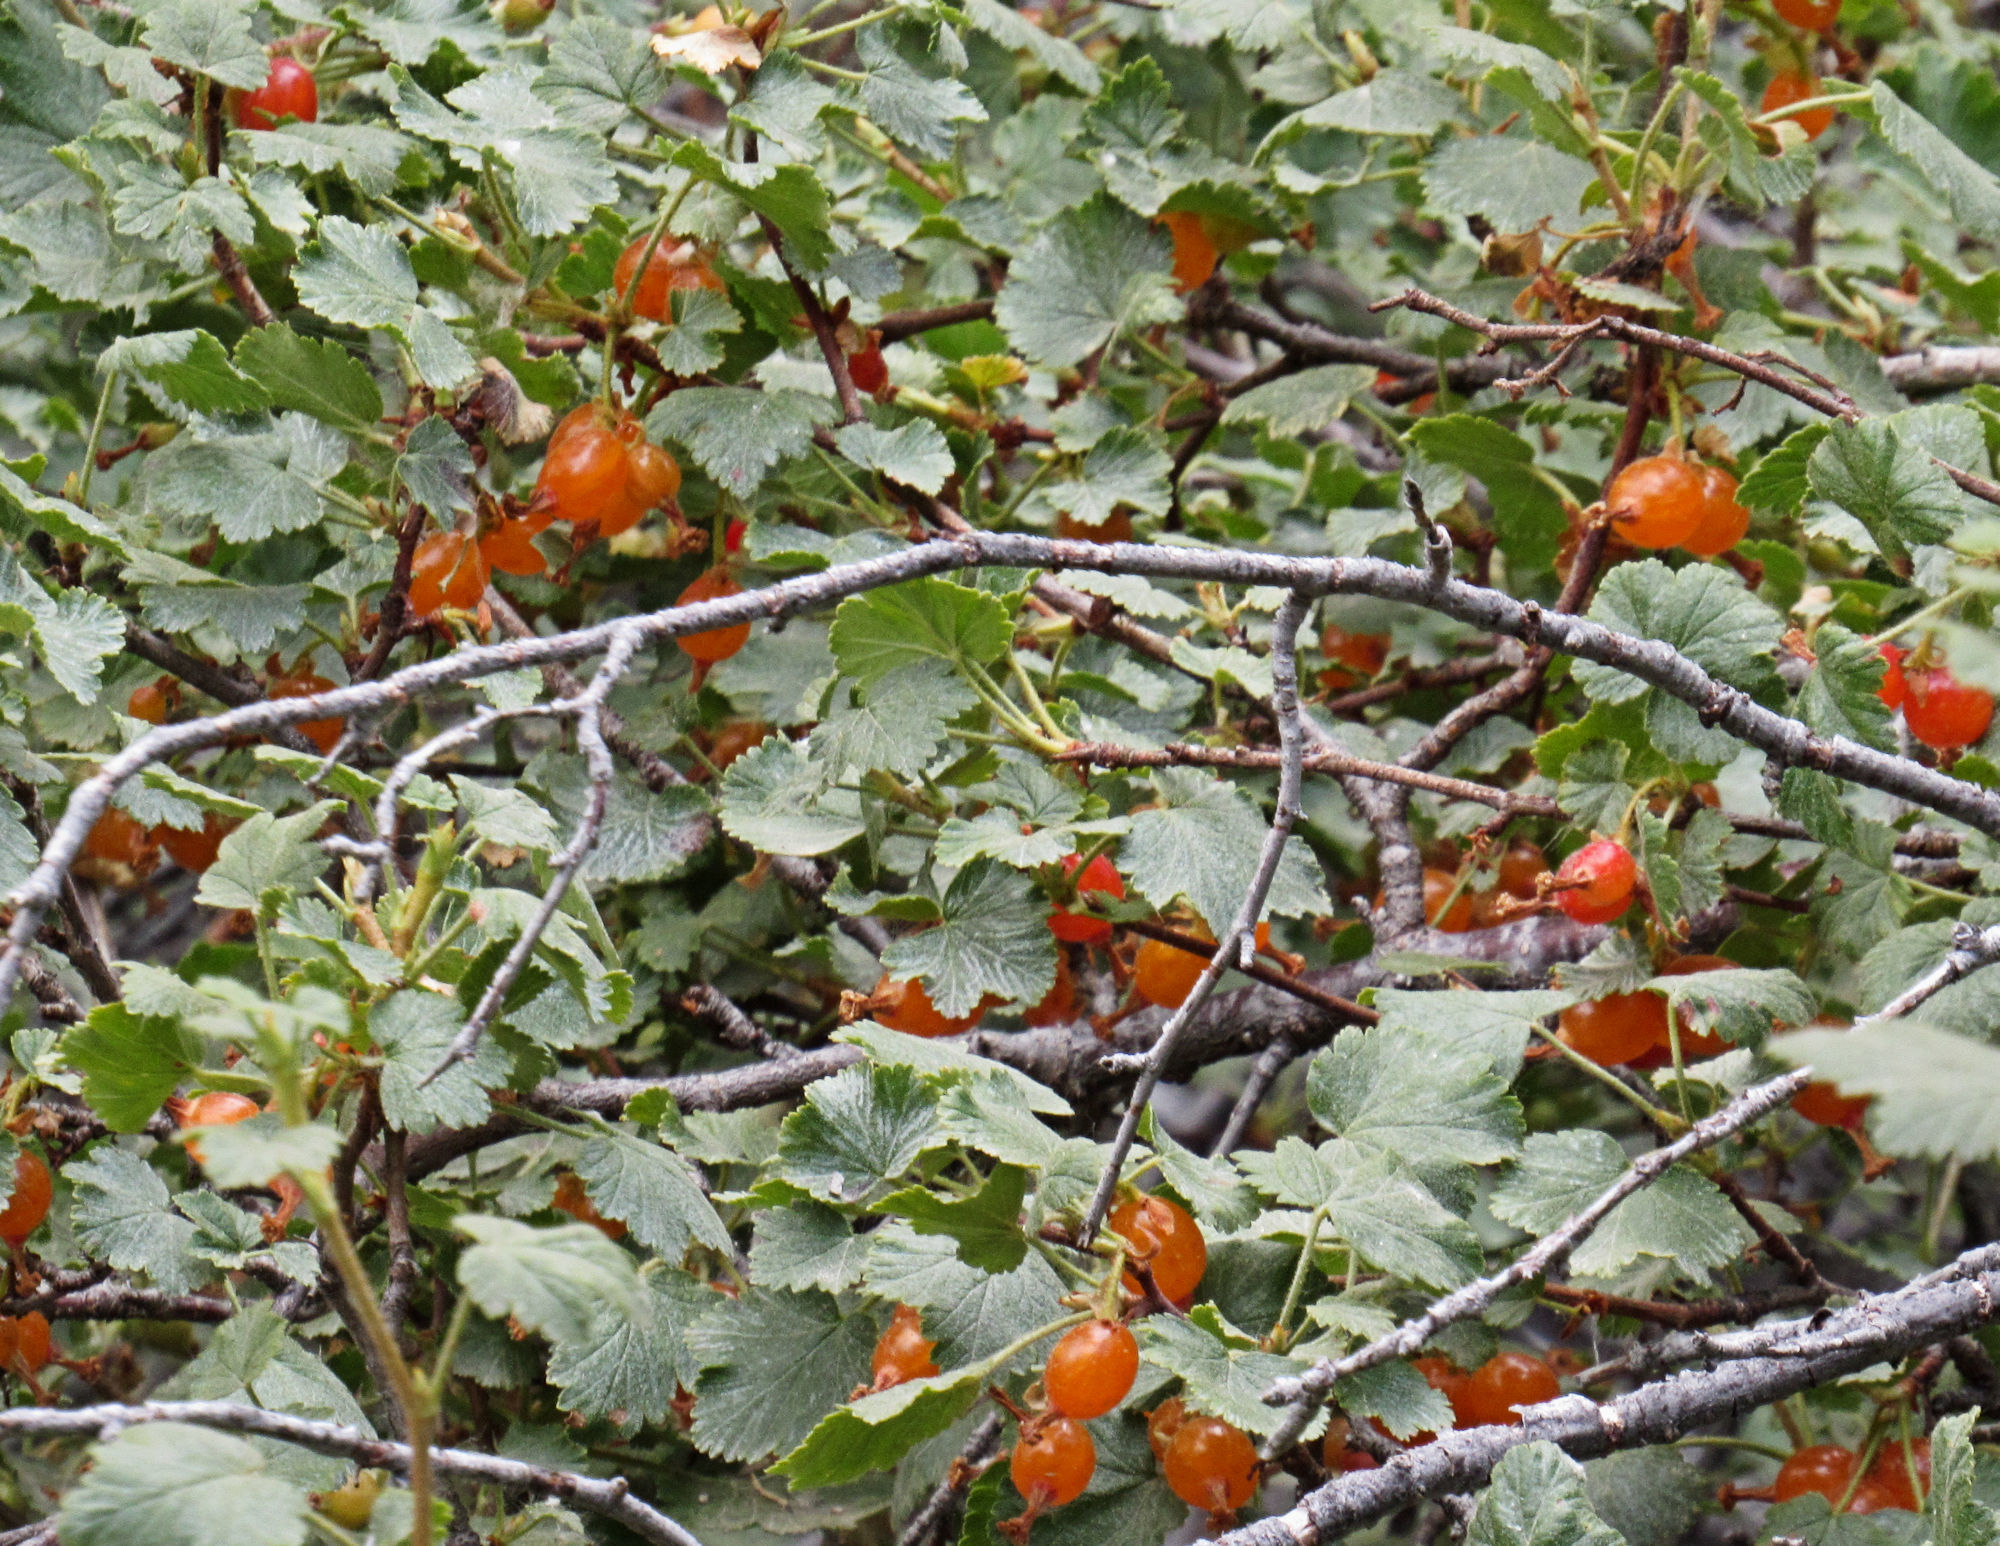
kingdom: Plantae
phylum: Tracheophyta
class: Magnoliopsida
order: Saxifragales
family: Grossulariaceae
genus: Ribes
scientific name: Ribes cereum
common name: Wax currant
